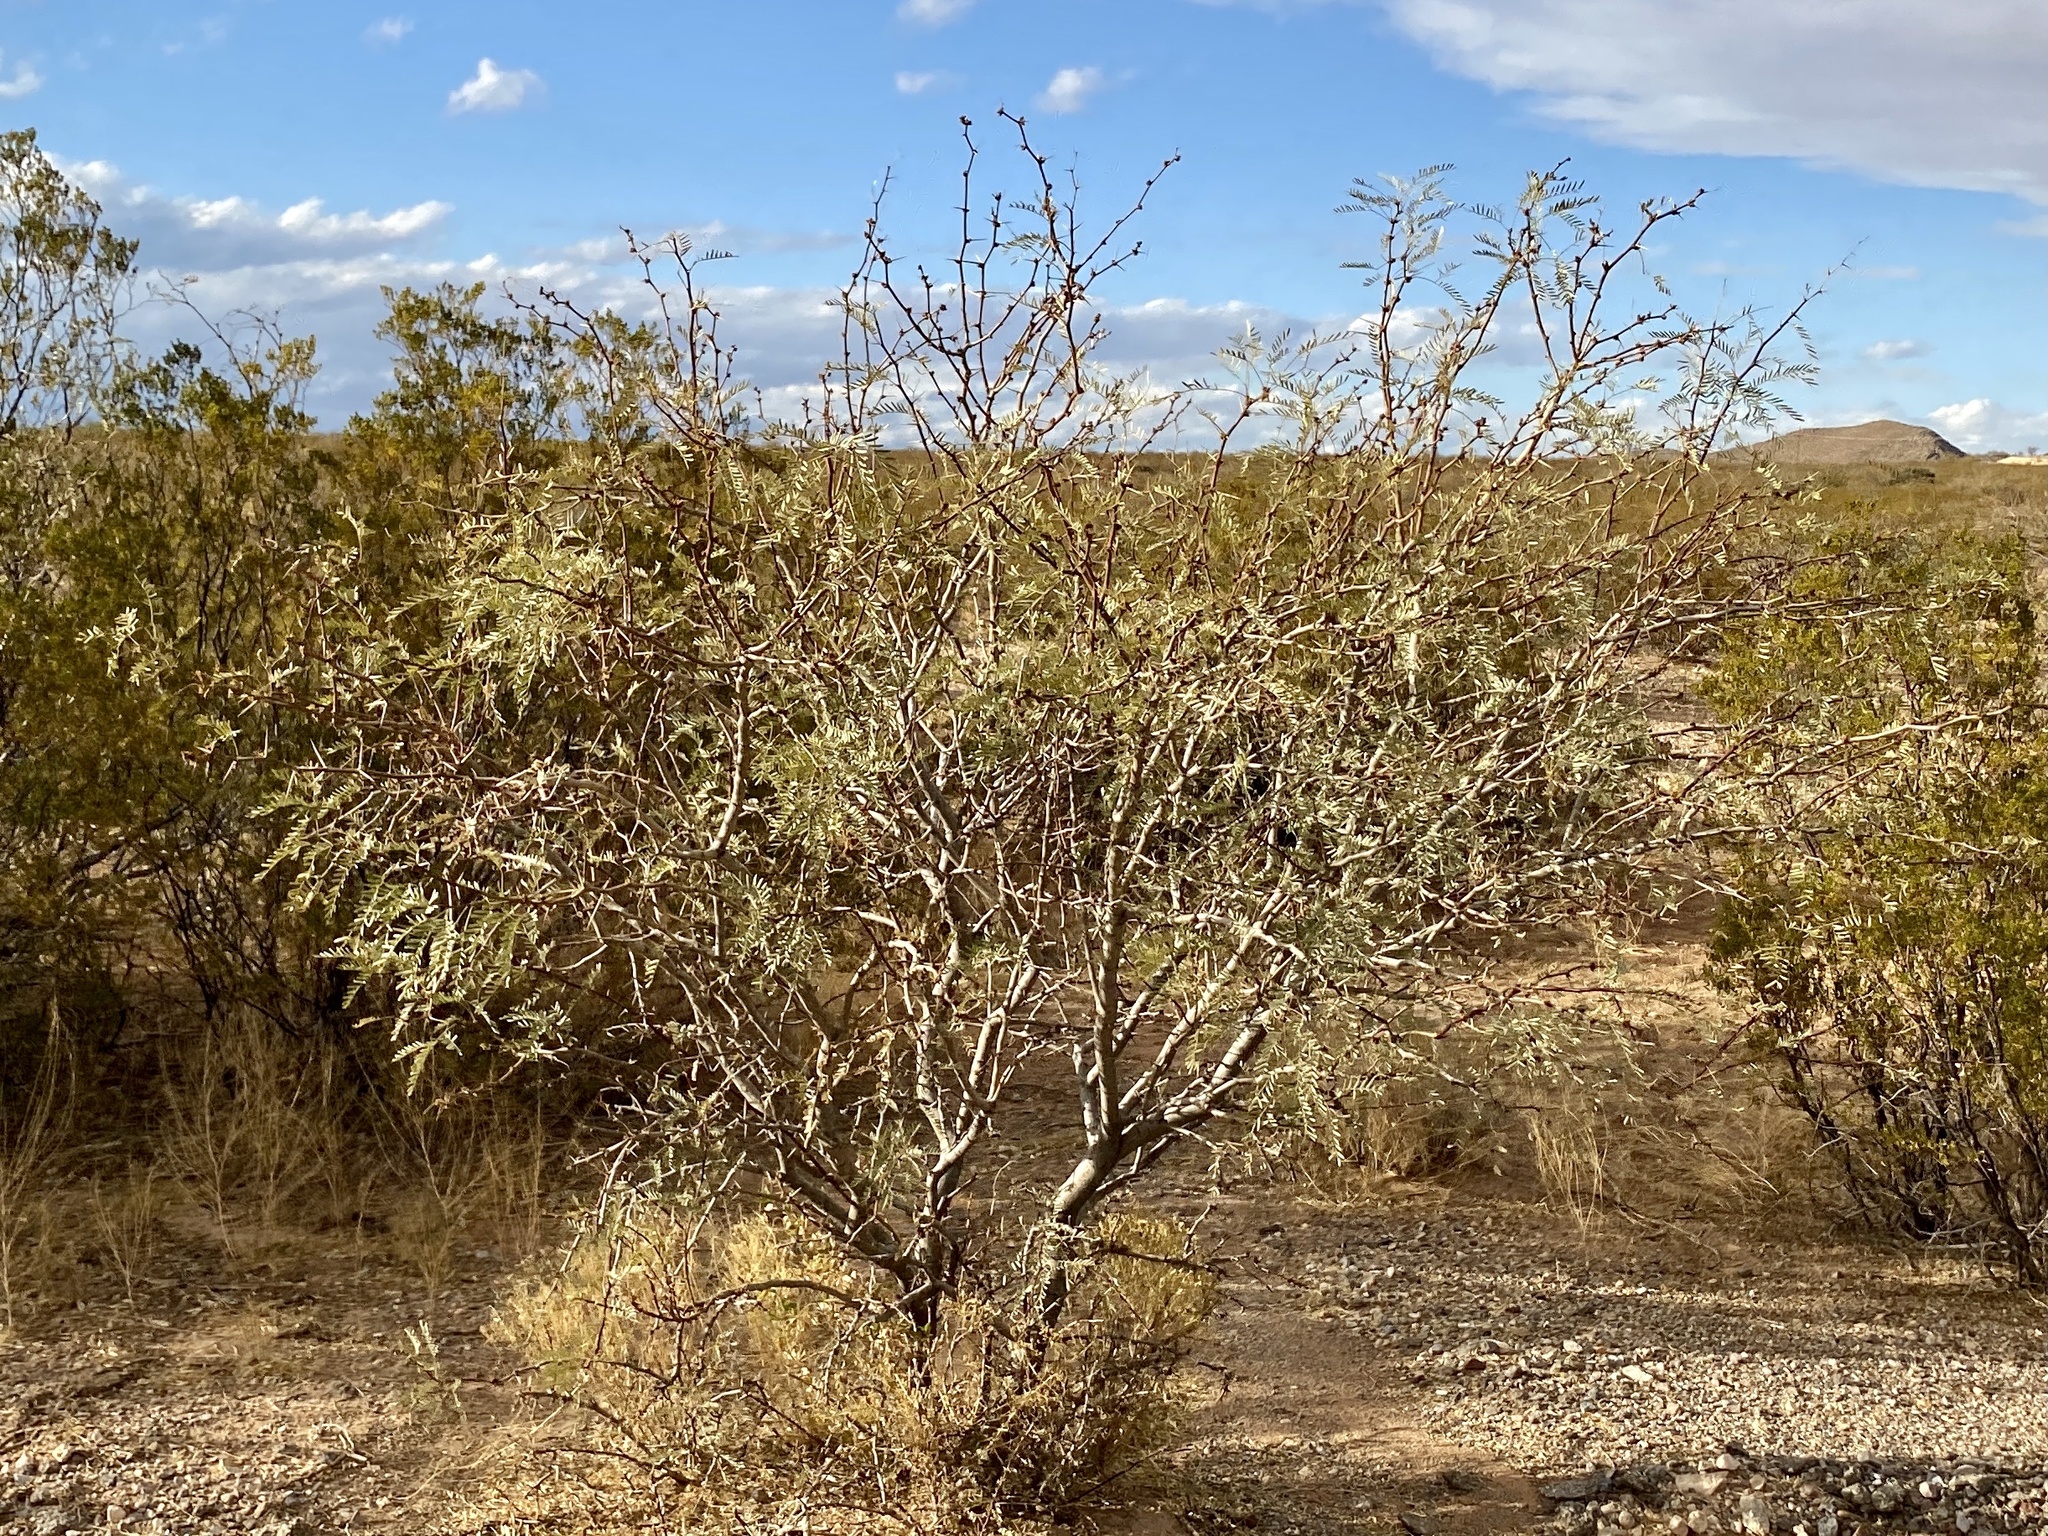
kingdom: Plantae
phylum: Tracheophyta
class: Magnoliopsida
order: Fabales
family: Fabaceae
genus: Prosopis
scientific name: Prosopis glandulosa
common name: Honey mesquite
